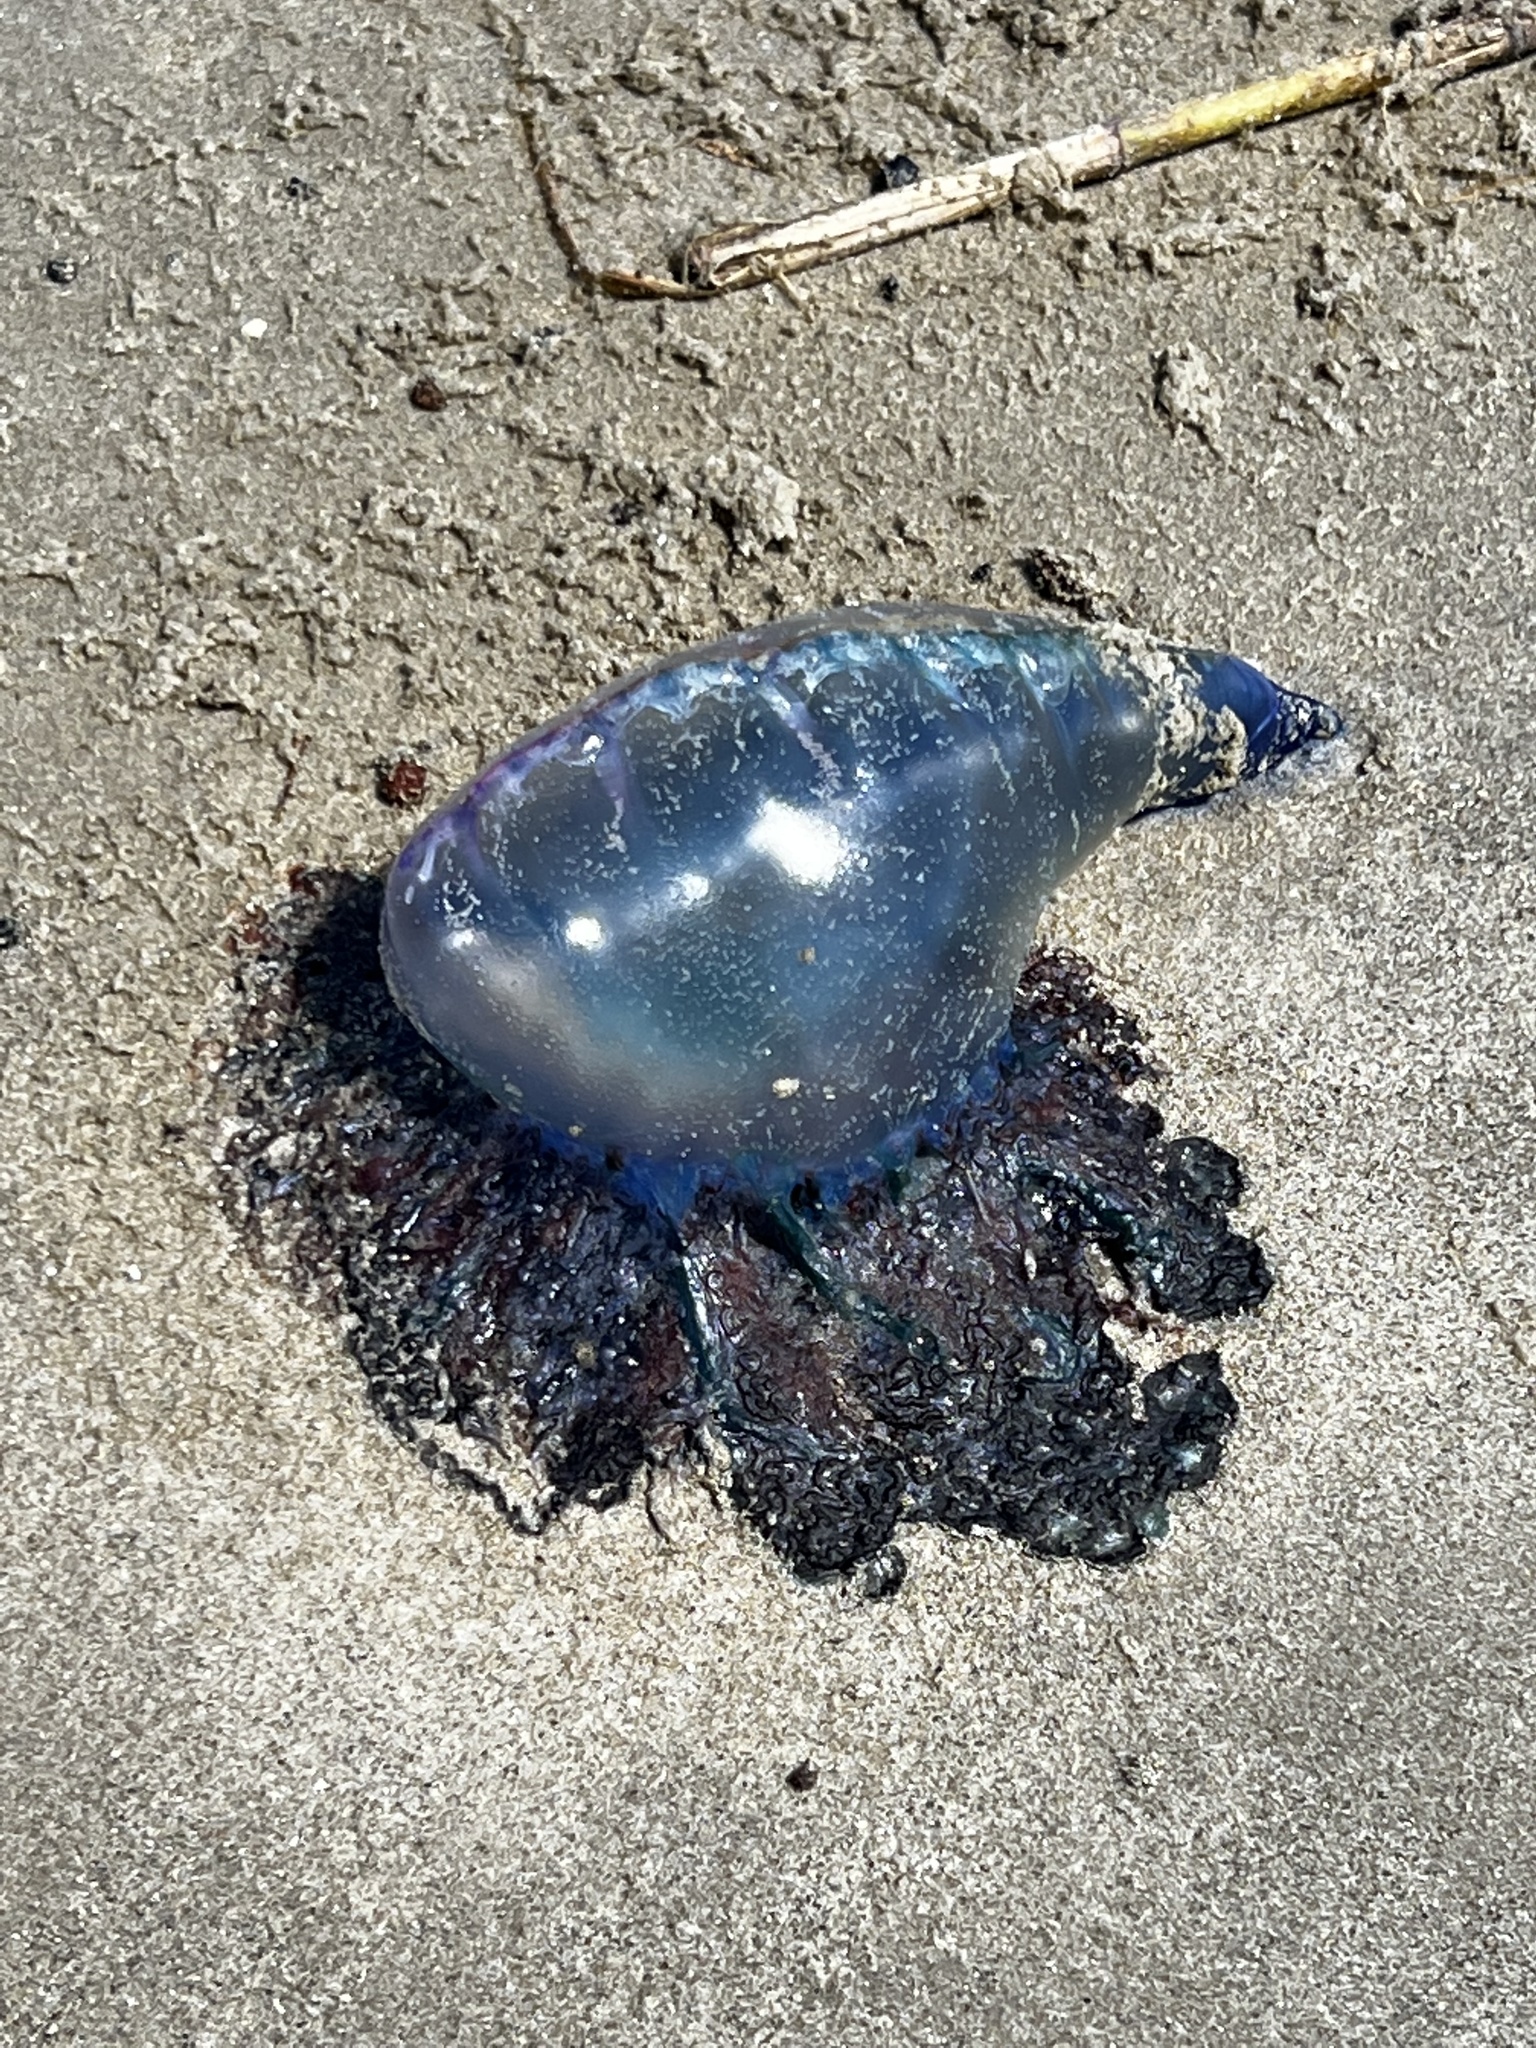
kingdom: Animalia
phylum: Cnidaria
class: Hydrozoa
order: Siphonophorae
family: Physaliidae
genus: Physalia
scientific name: Physalia physalis
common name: Portuguese man-of-war
